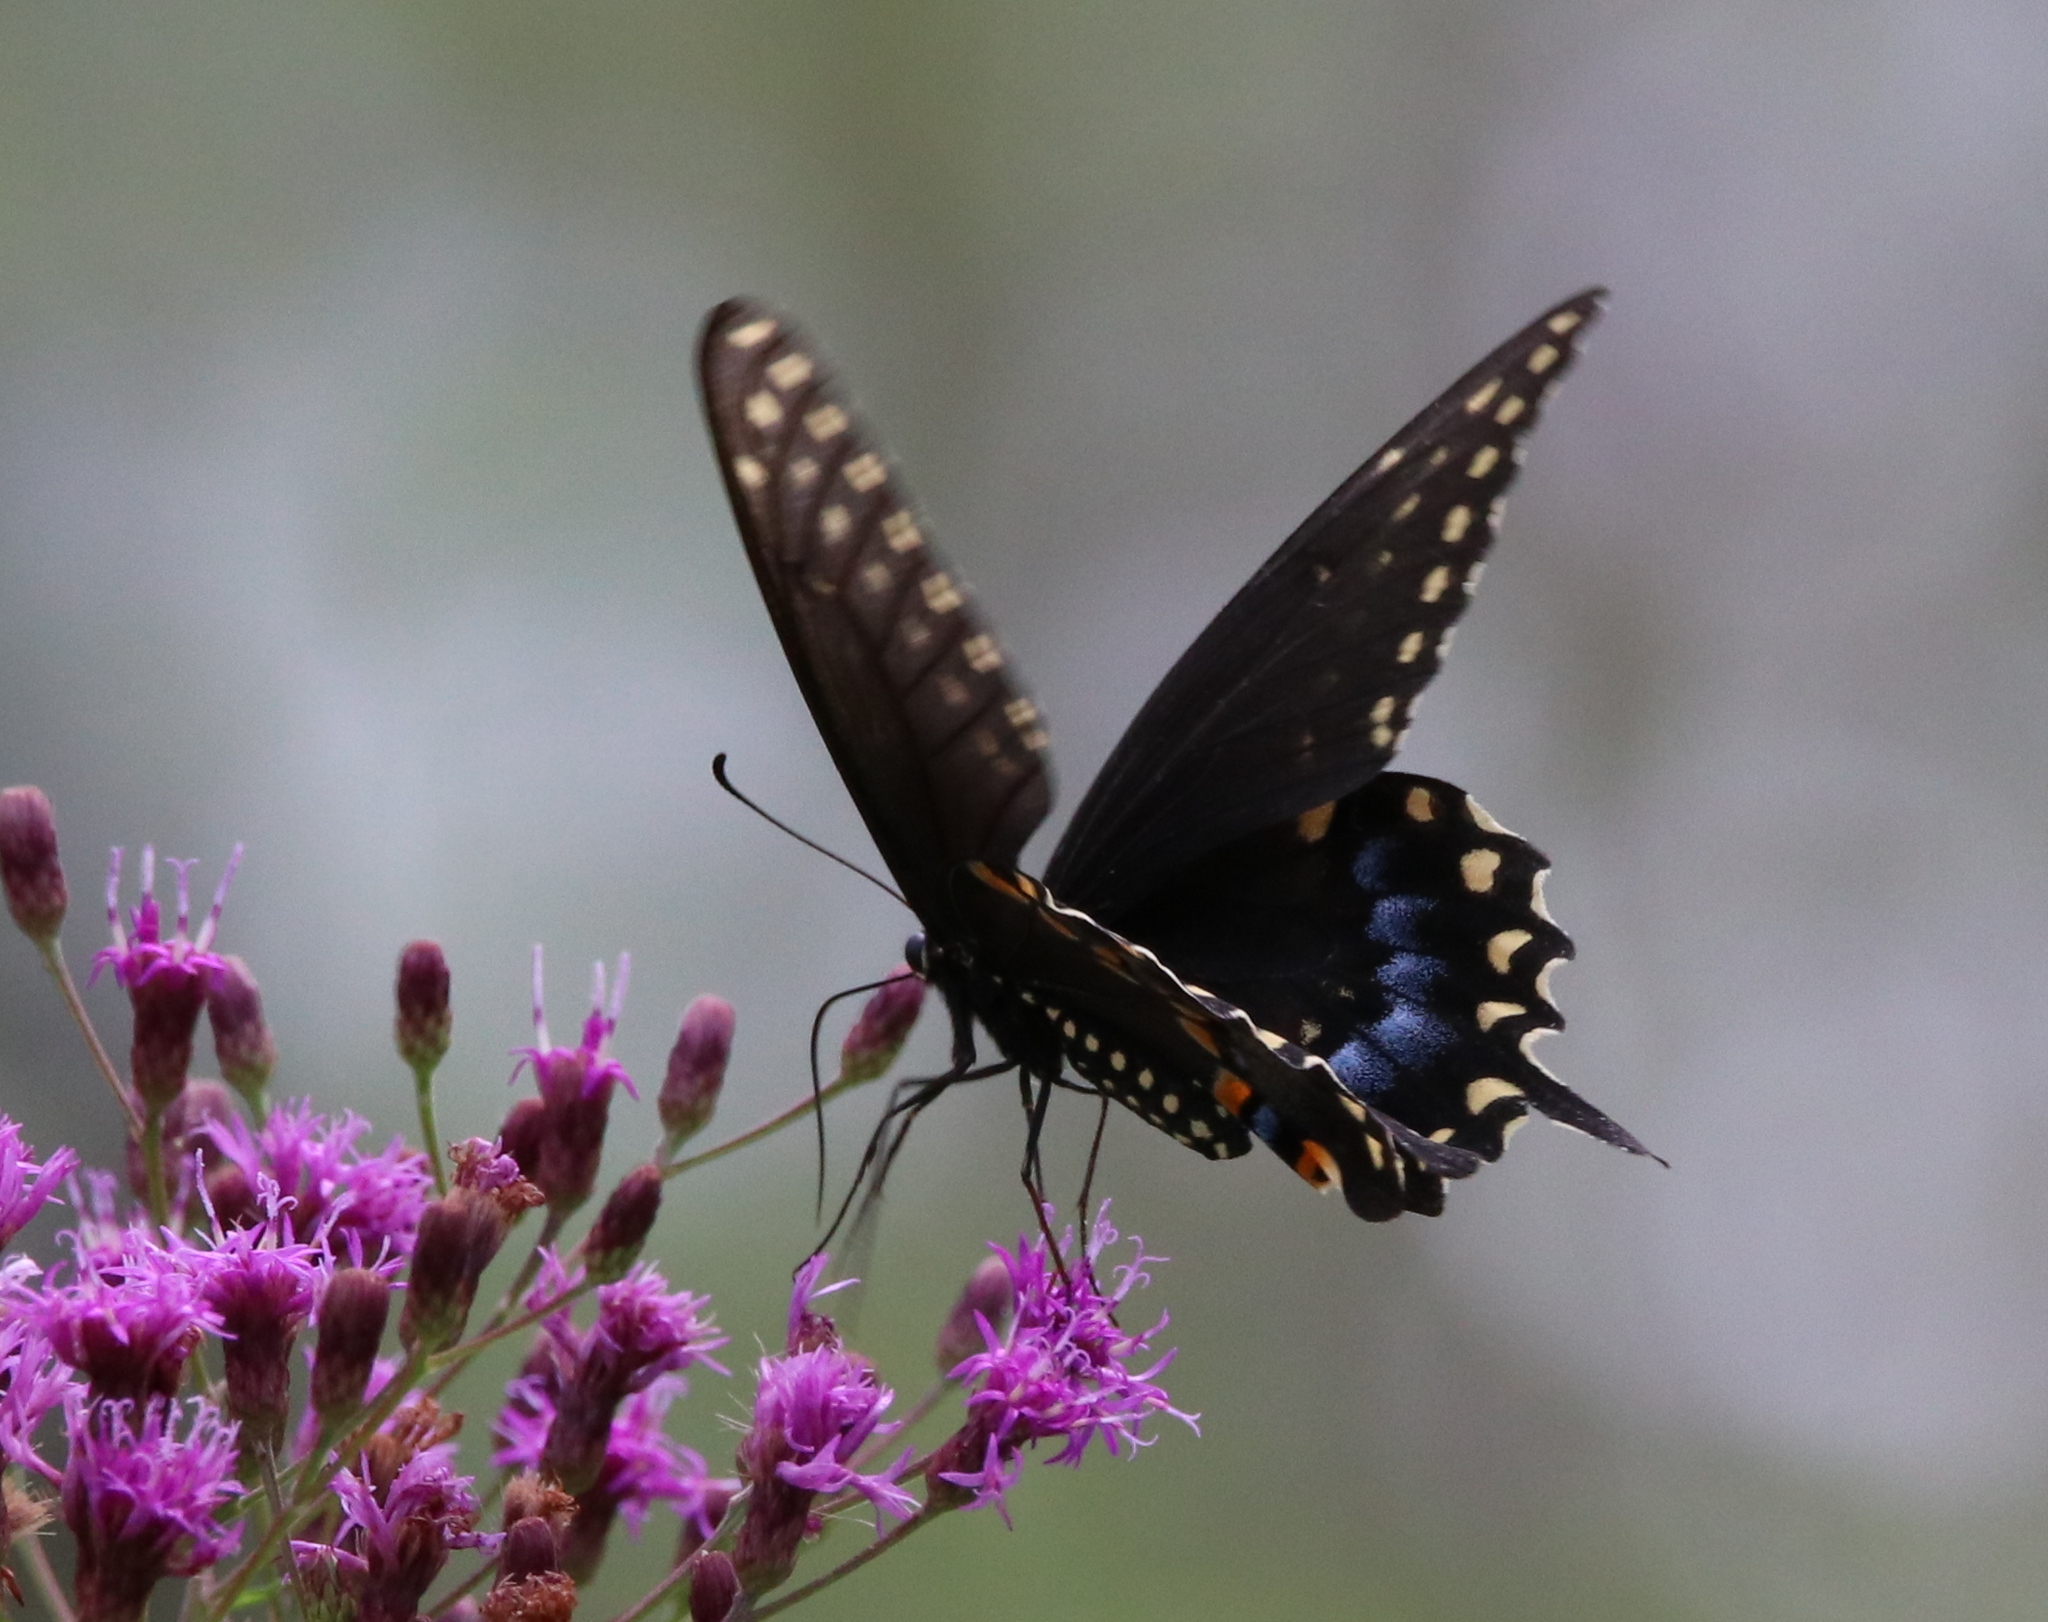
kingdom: Animalia
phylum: Arthropoda
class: Insecta
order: Lepidoptera
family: Papilionidae
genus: Papilio
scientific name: Papilio polyxenes
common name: Black swallowtail
